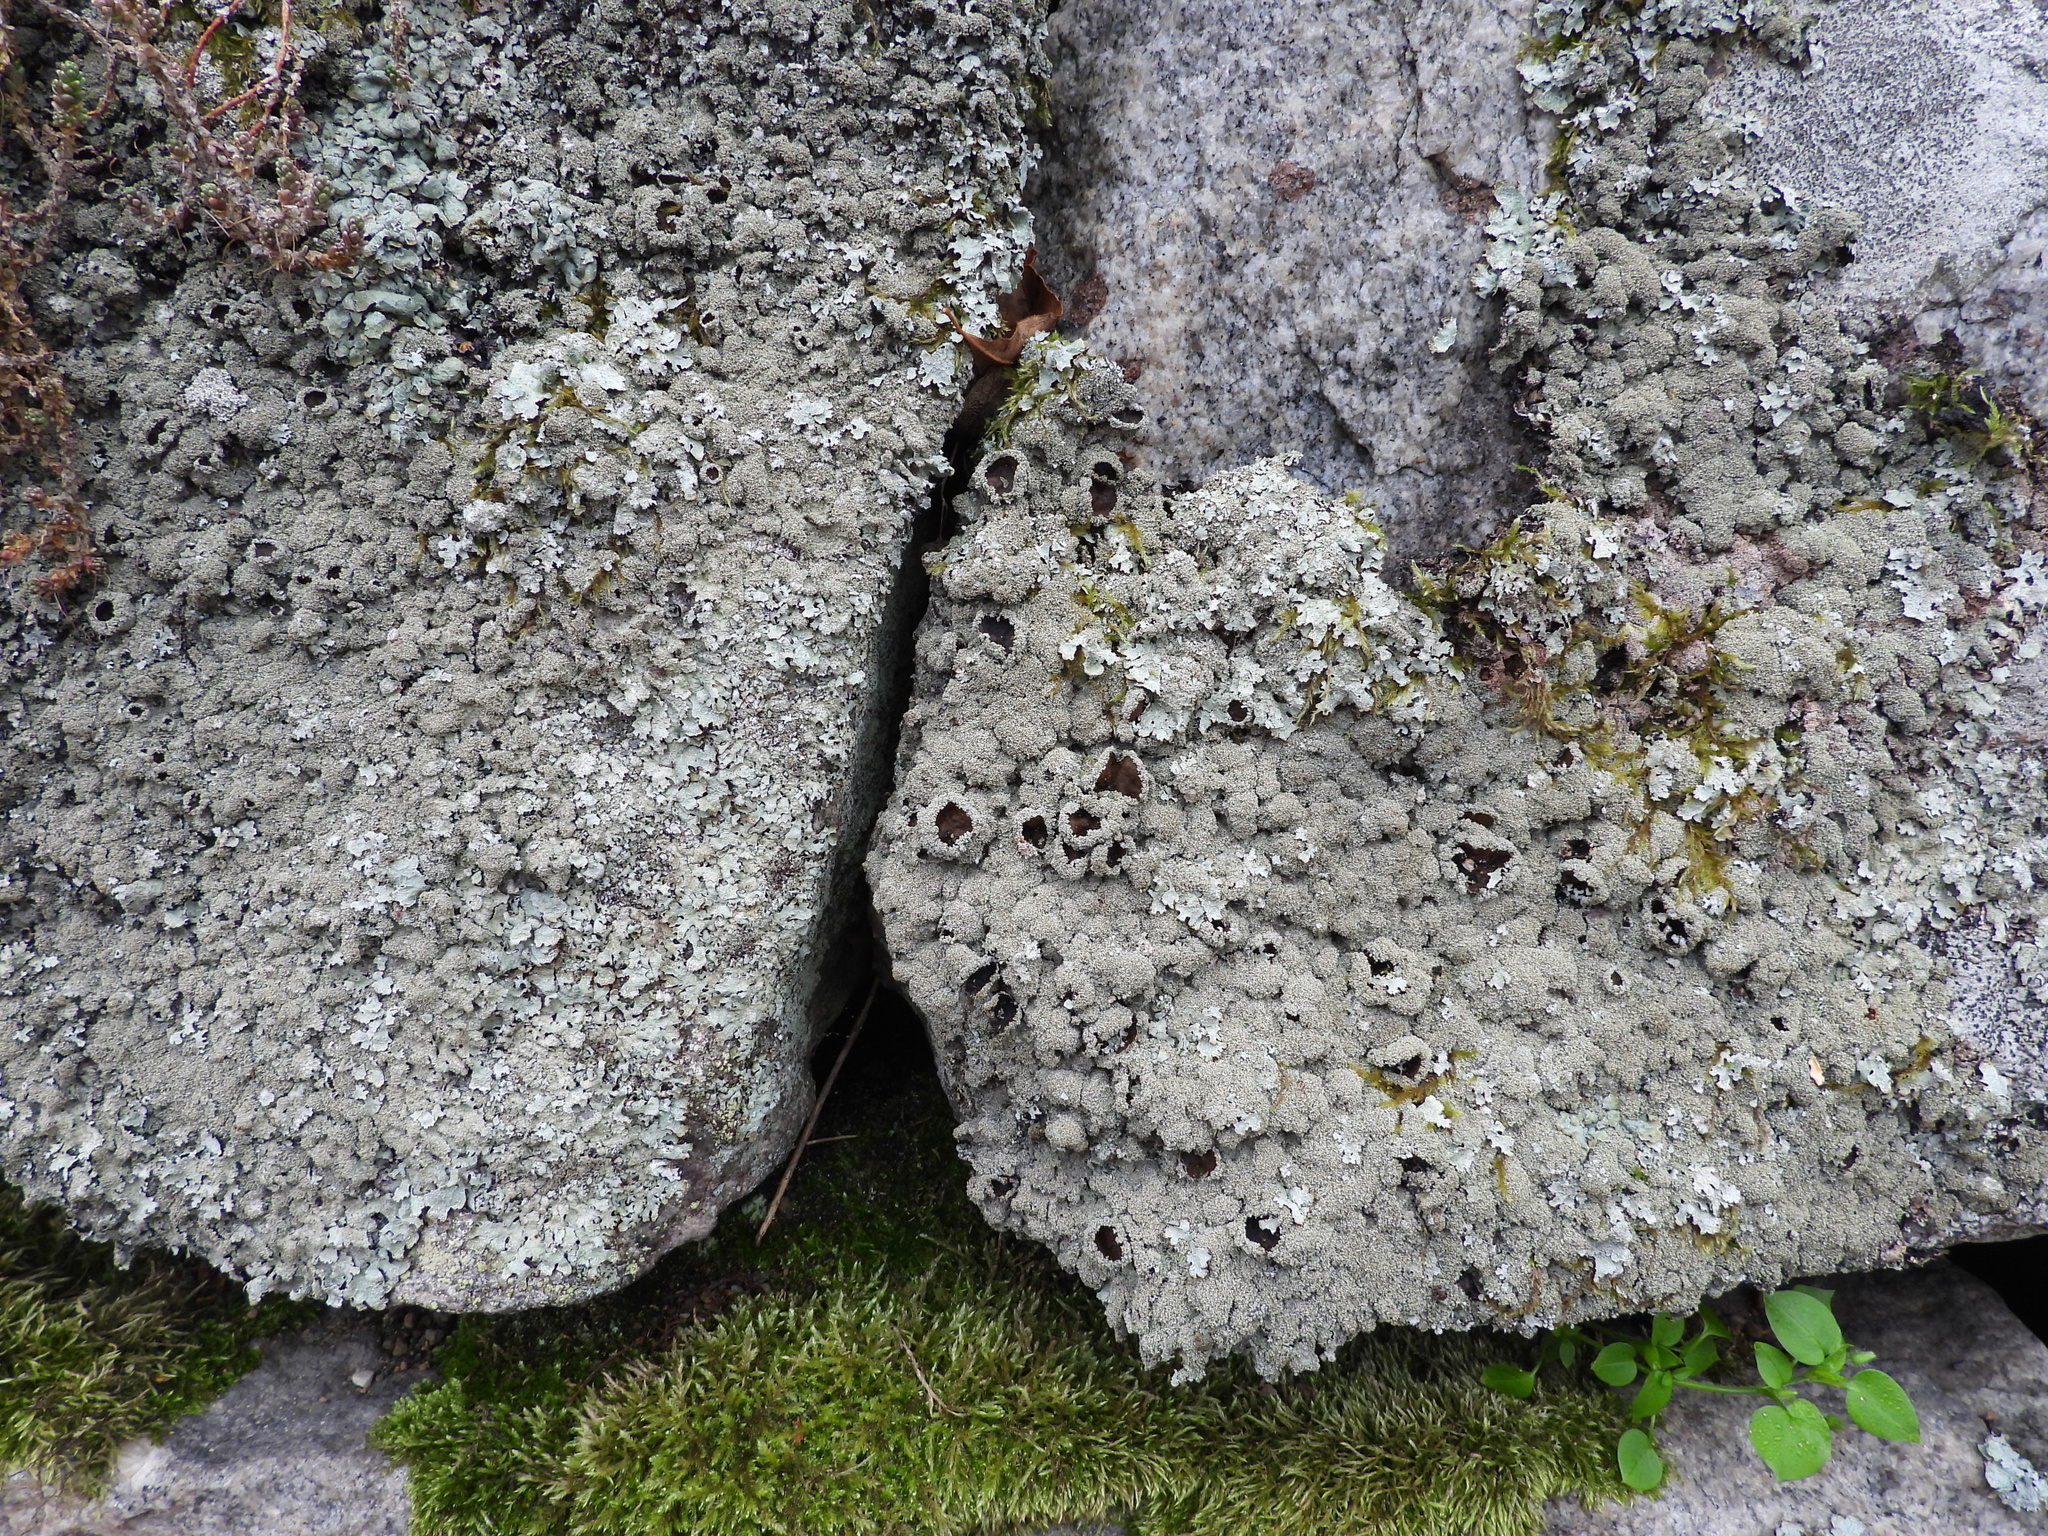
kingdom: Fungi
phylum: Ascomycota
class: Lecanoromycetes
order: Lecanorales
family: Parmeliaceae
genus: Parmelia
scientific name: Parmelia saxatilis
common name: Salted shield lichen
